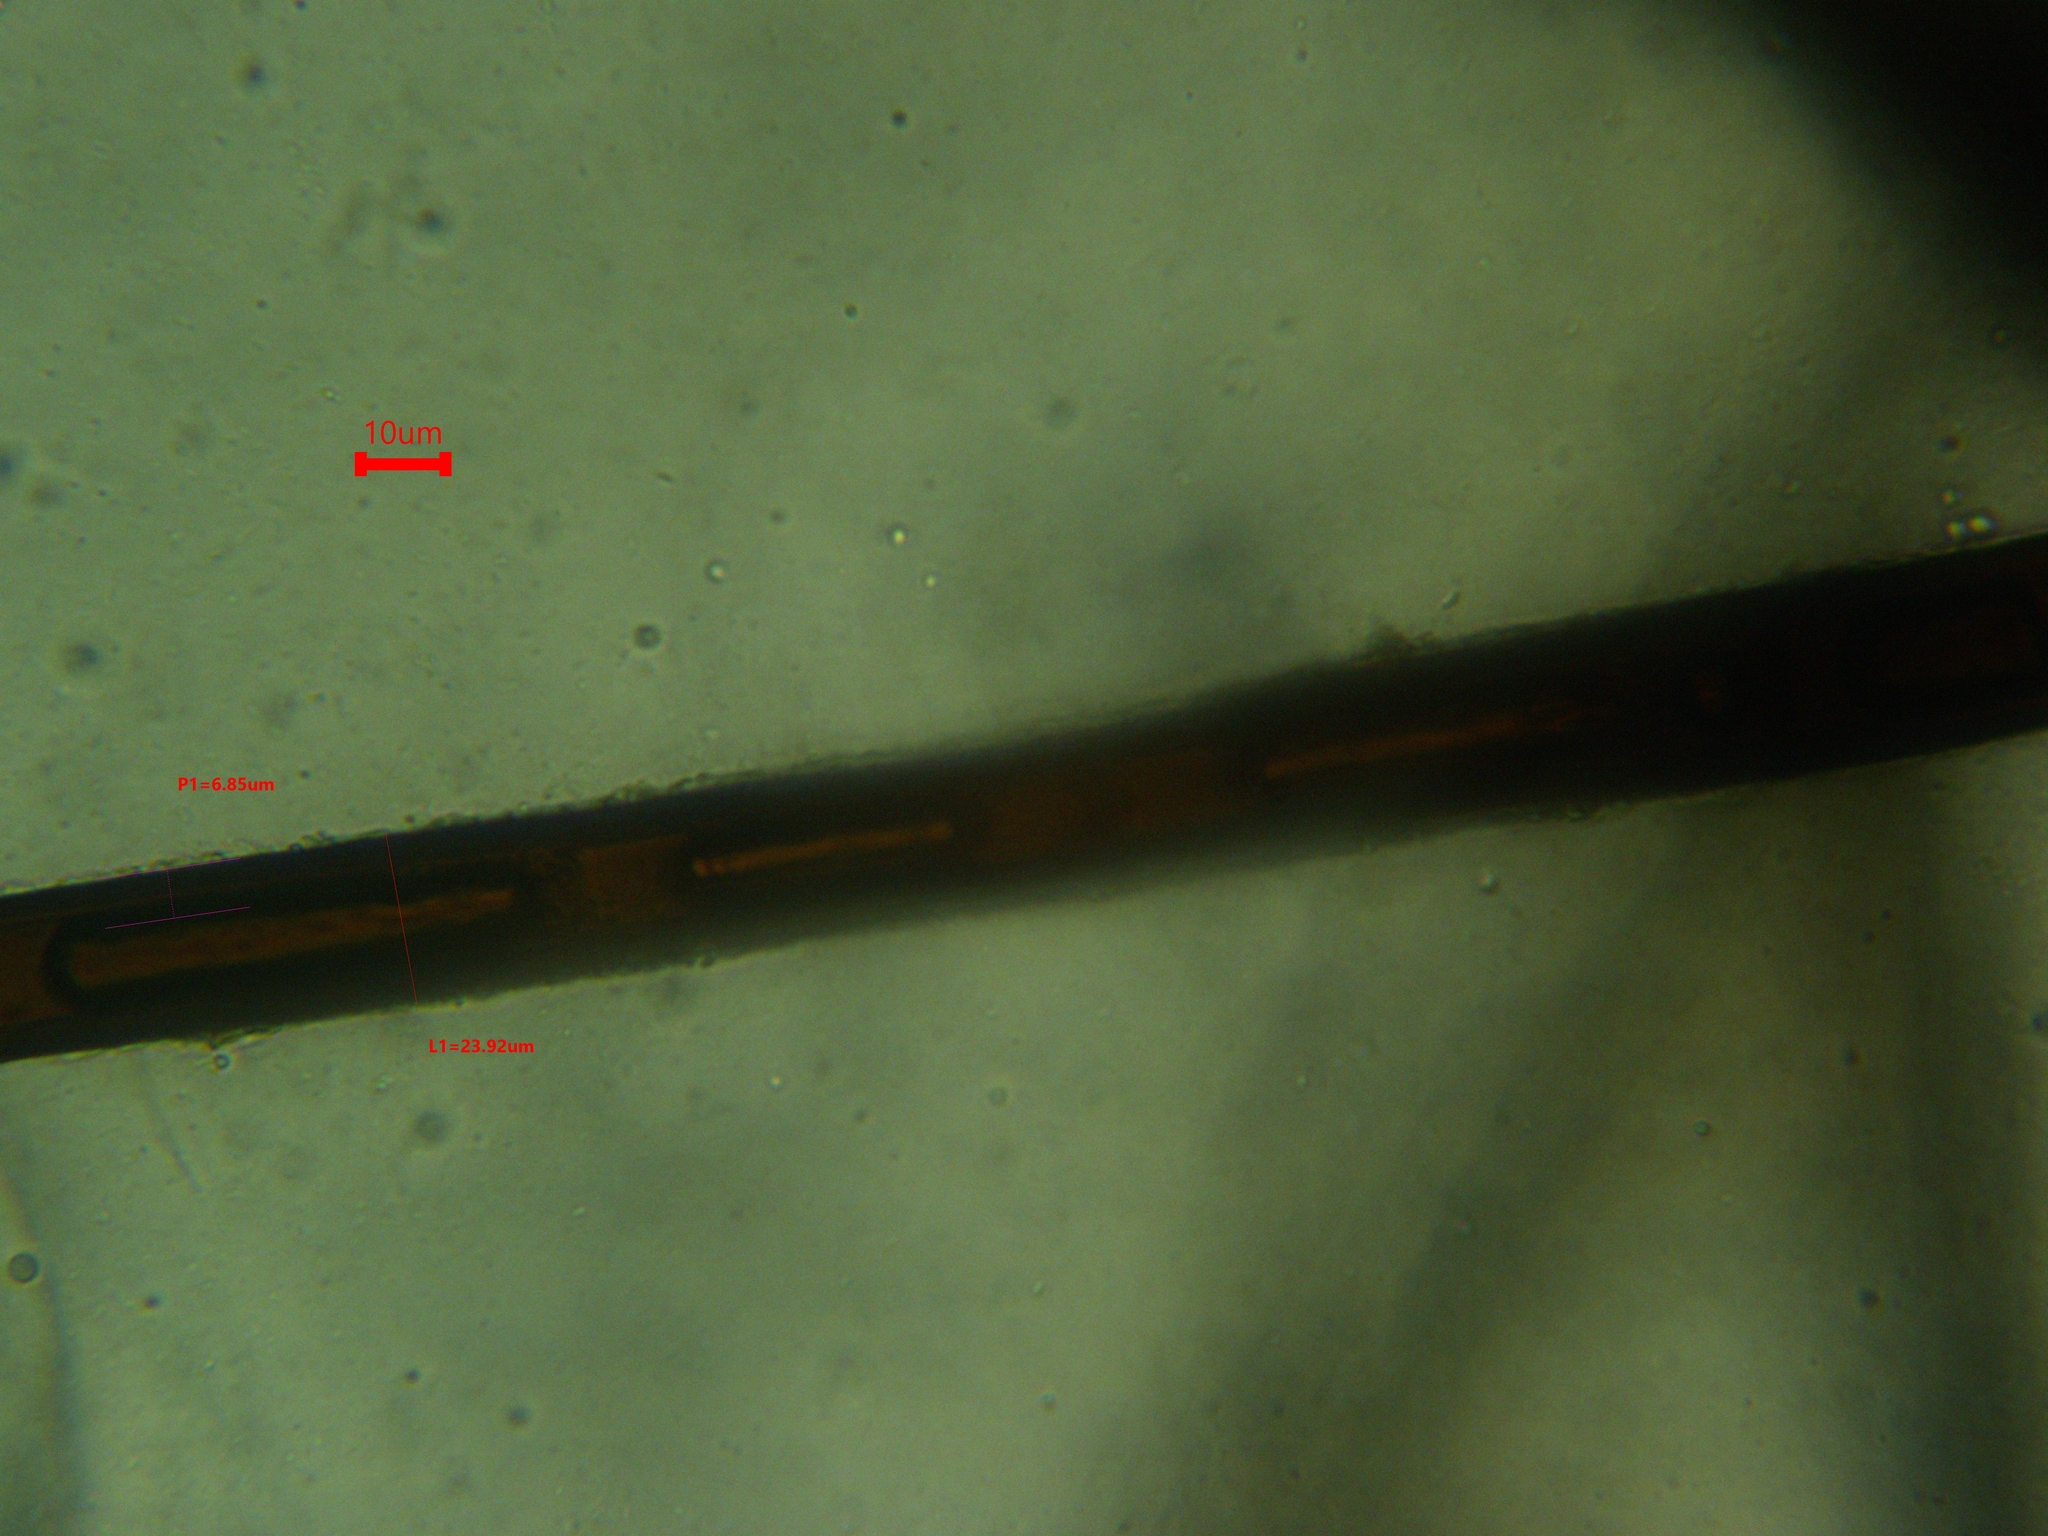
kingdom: Fungi
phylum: Ascomycota
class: Pezizomycetes
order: Pezizales
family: Pyronemataceae
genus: Scutellinia
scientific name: Scutellinia colensoi
